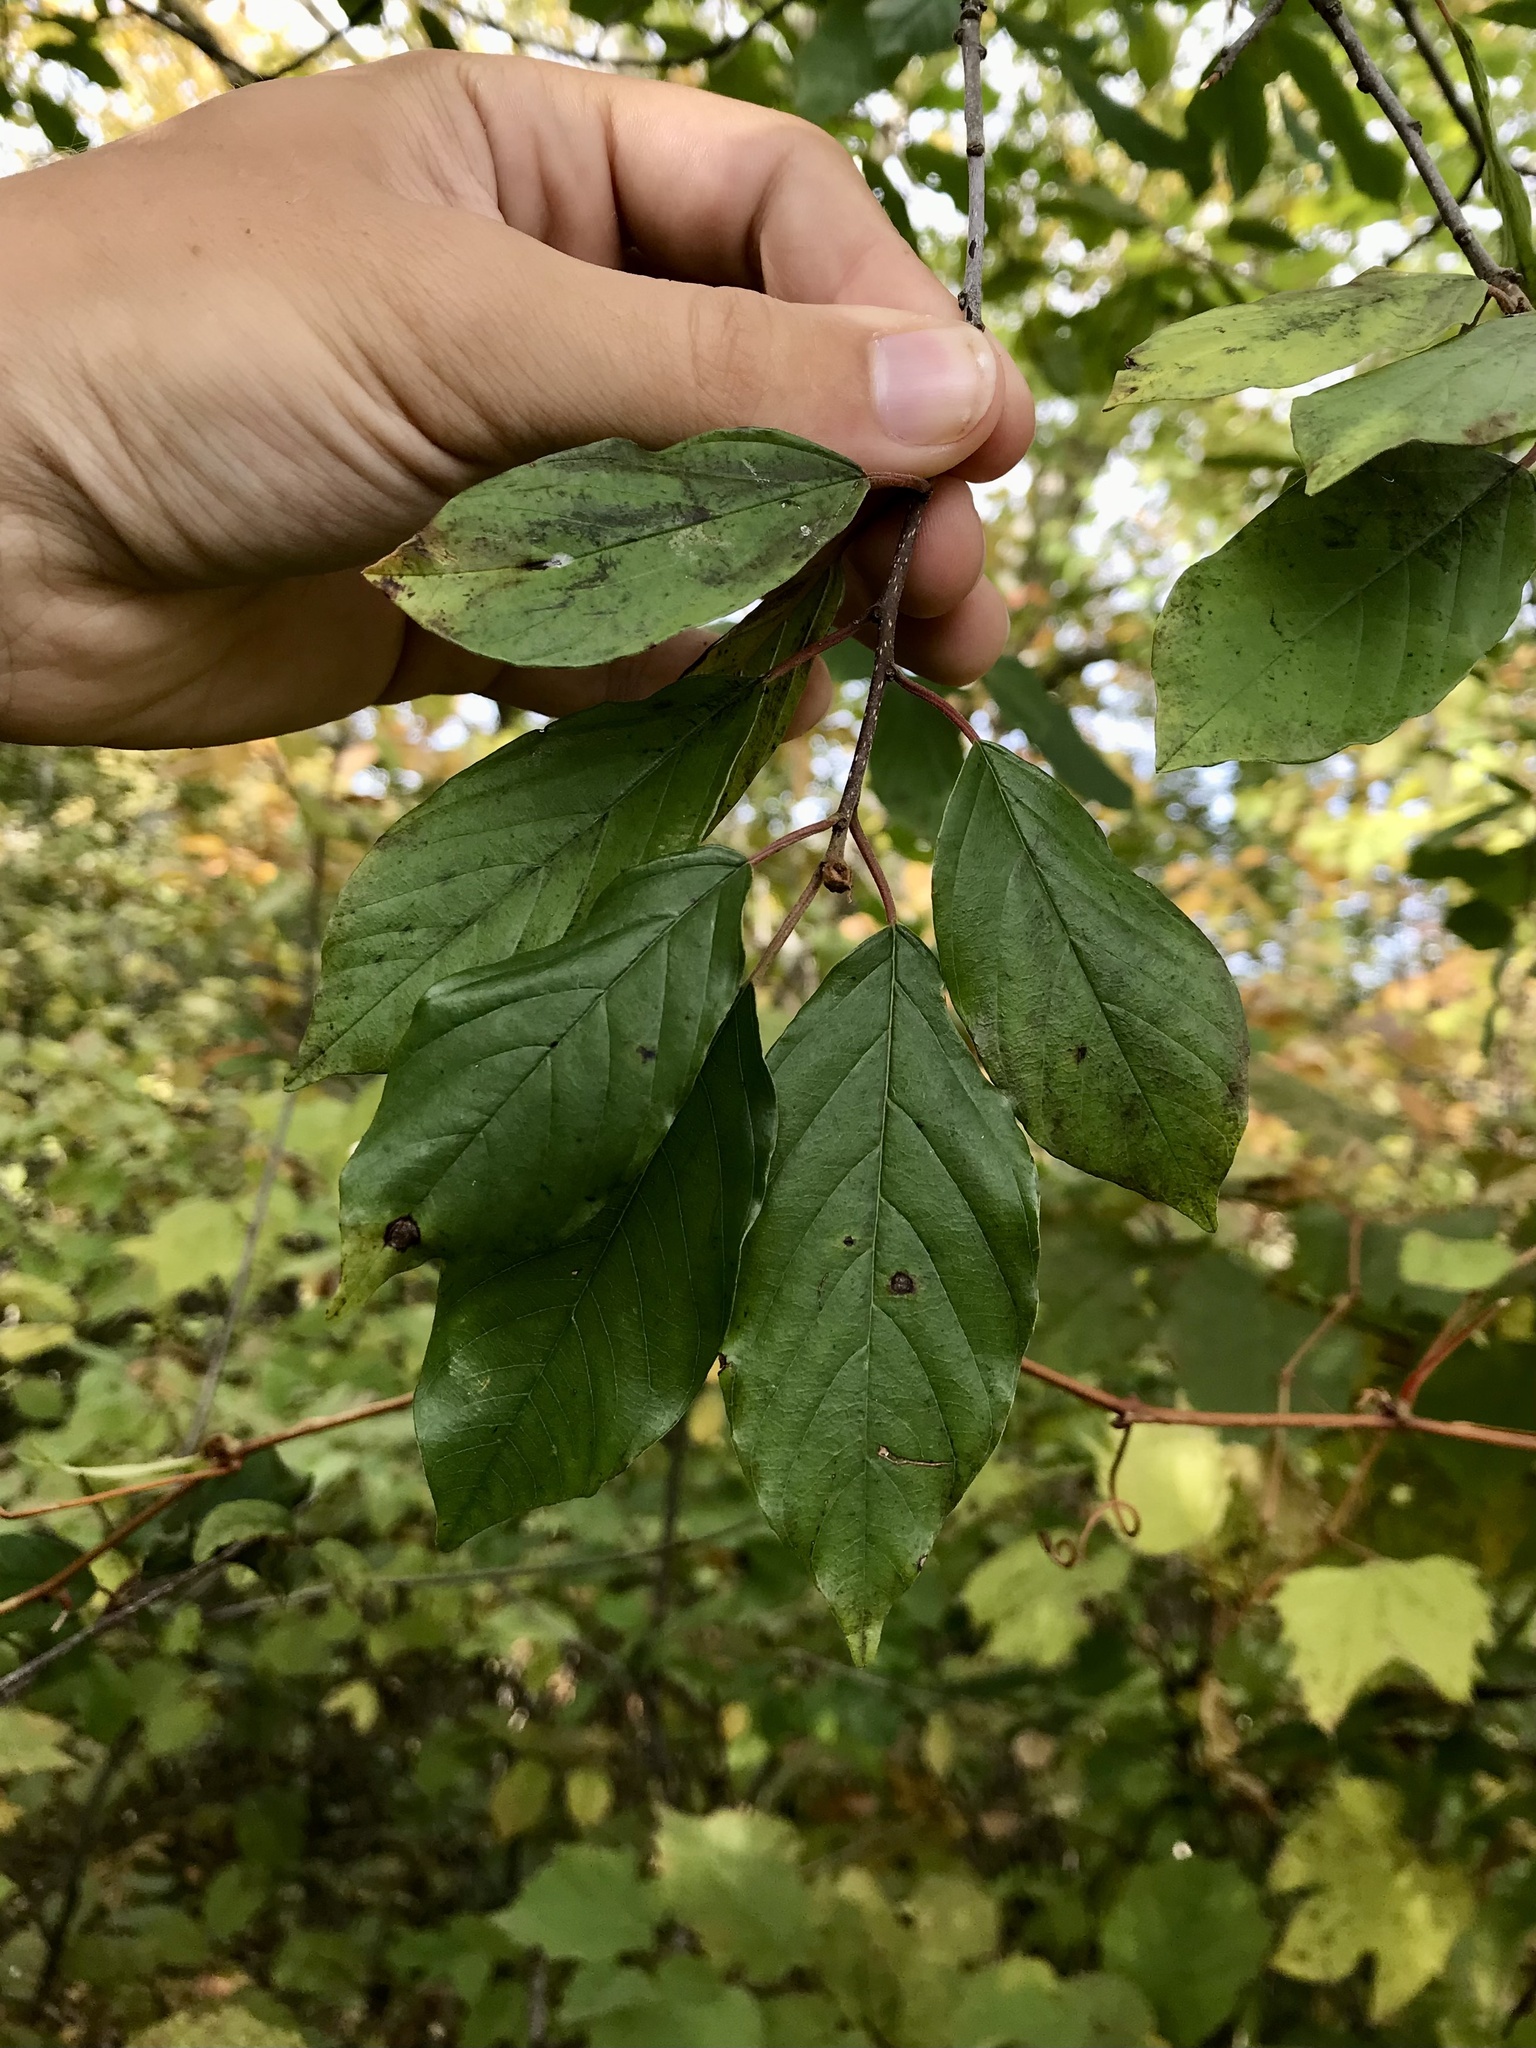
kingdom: Plantae
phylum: Tracheophyta
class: Magnoliopsida
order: Rosales
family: Rhamnaceae
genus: Frangula
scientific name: Frangula alnus
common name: Alder buckthorn
